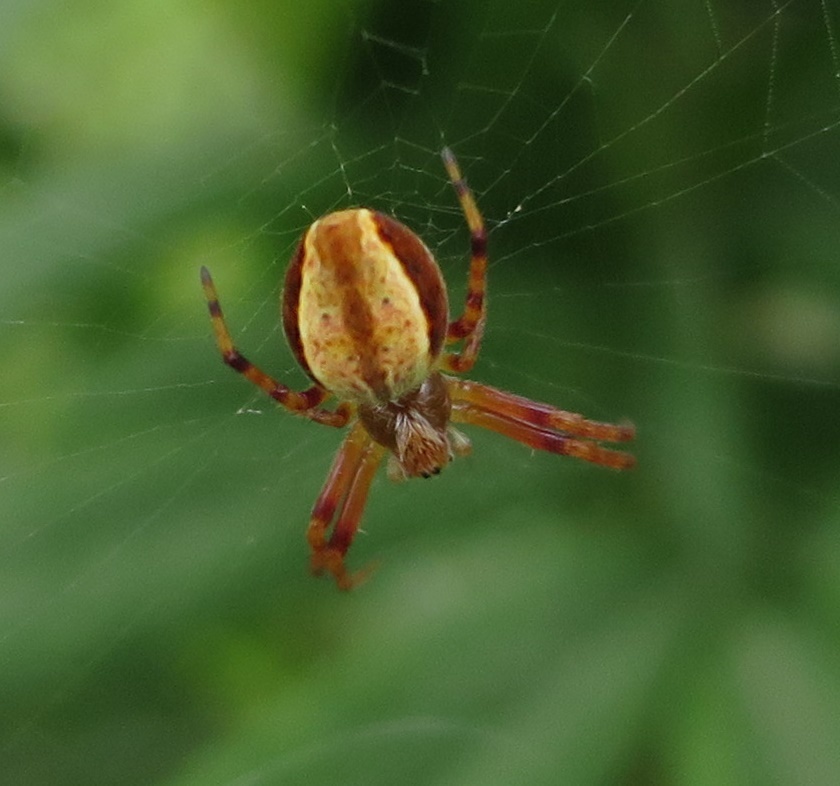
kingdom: Animalia
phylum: Arthropoda
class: Arachnida
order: Araneae
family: Araneidae
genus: Salsa
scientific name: Salsa fuliginata
